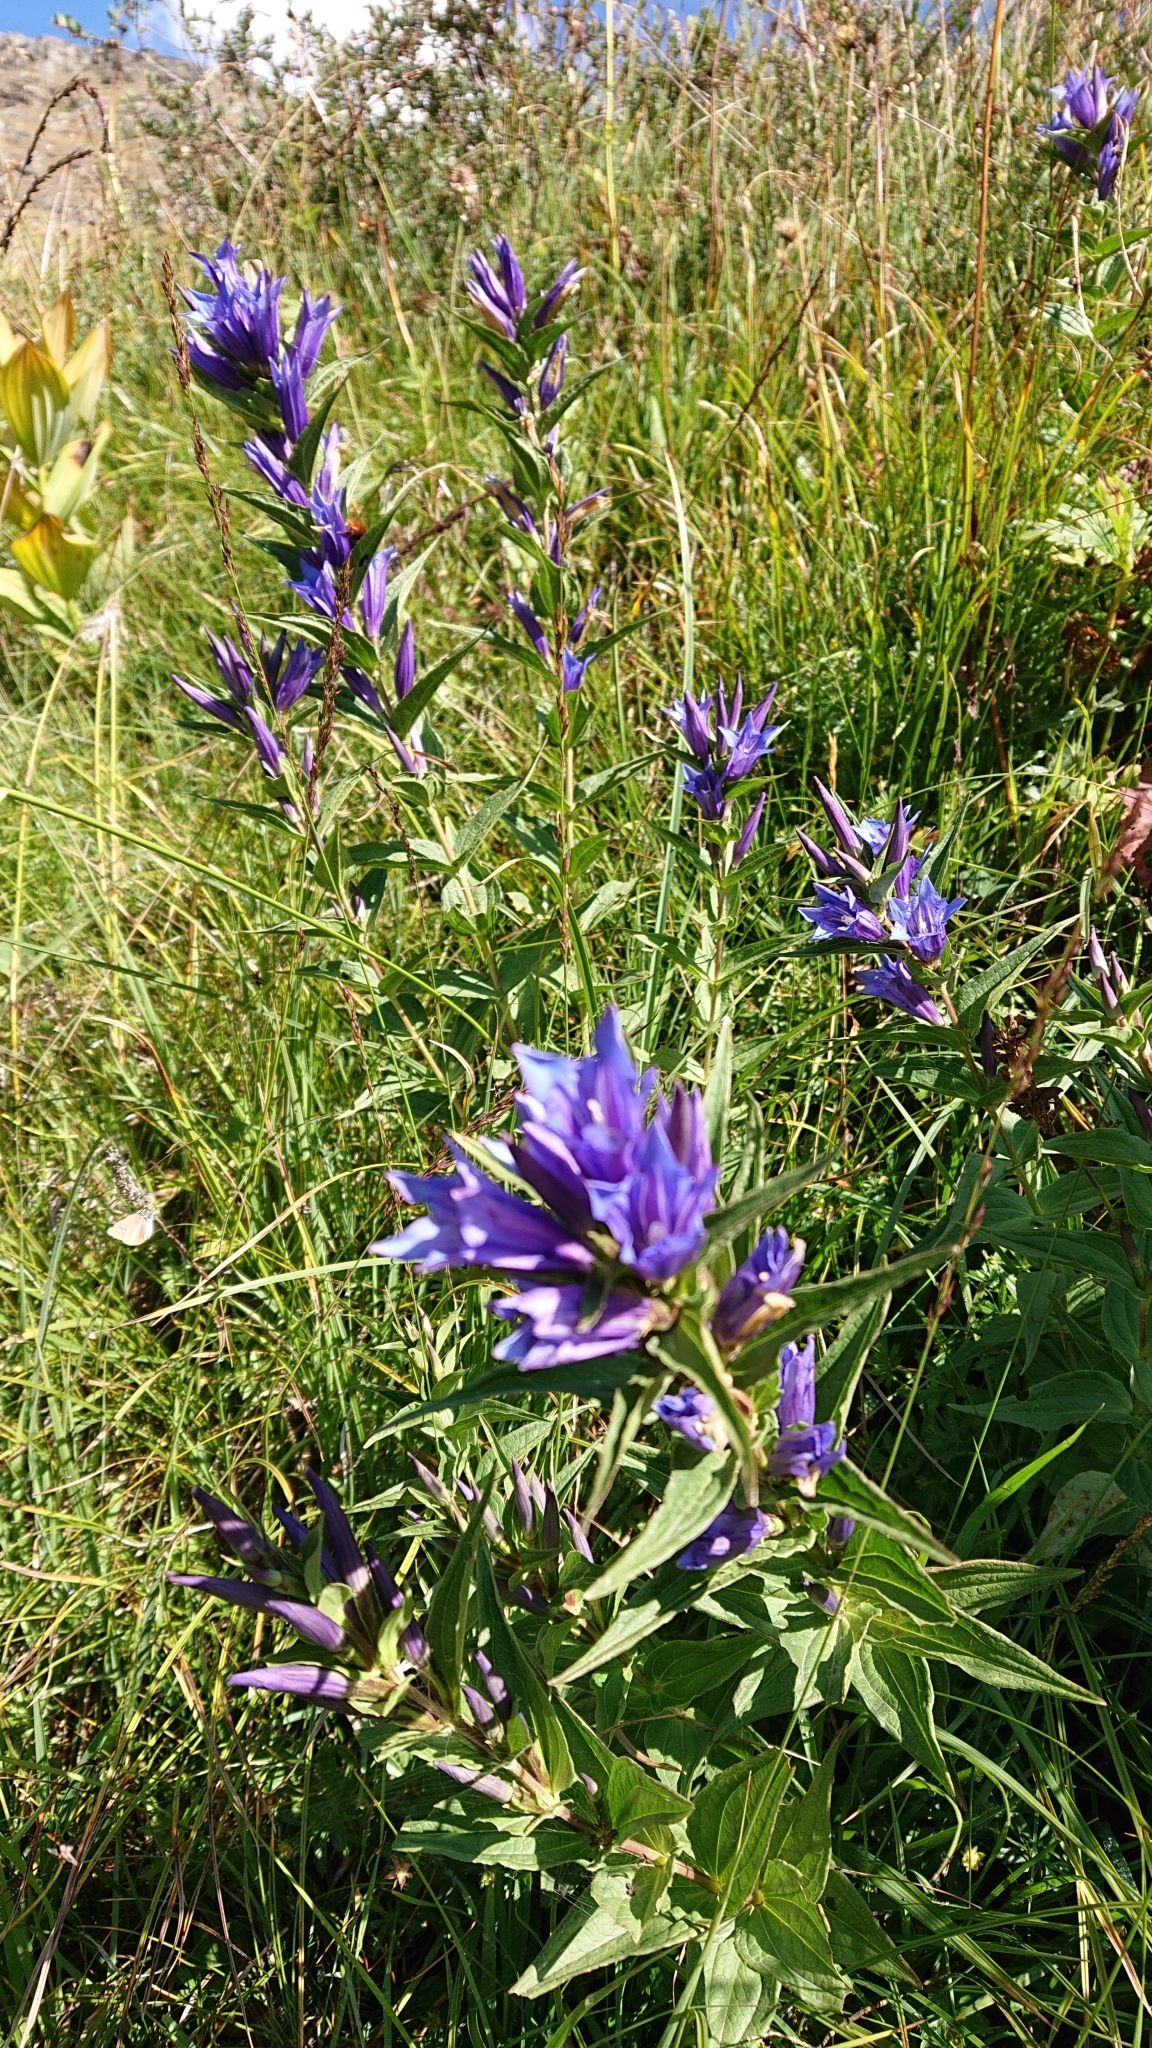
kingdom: Plantae
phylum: Tracheophyta
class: Magnoliopsida
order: Gentianales
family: Gentianaceae
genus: Gentiana
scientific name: Gentiana asclepiadea
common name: Willow gentian
